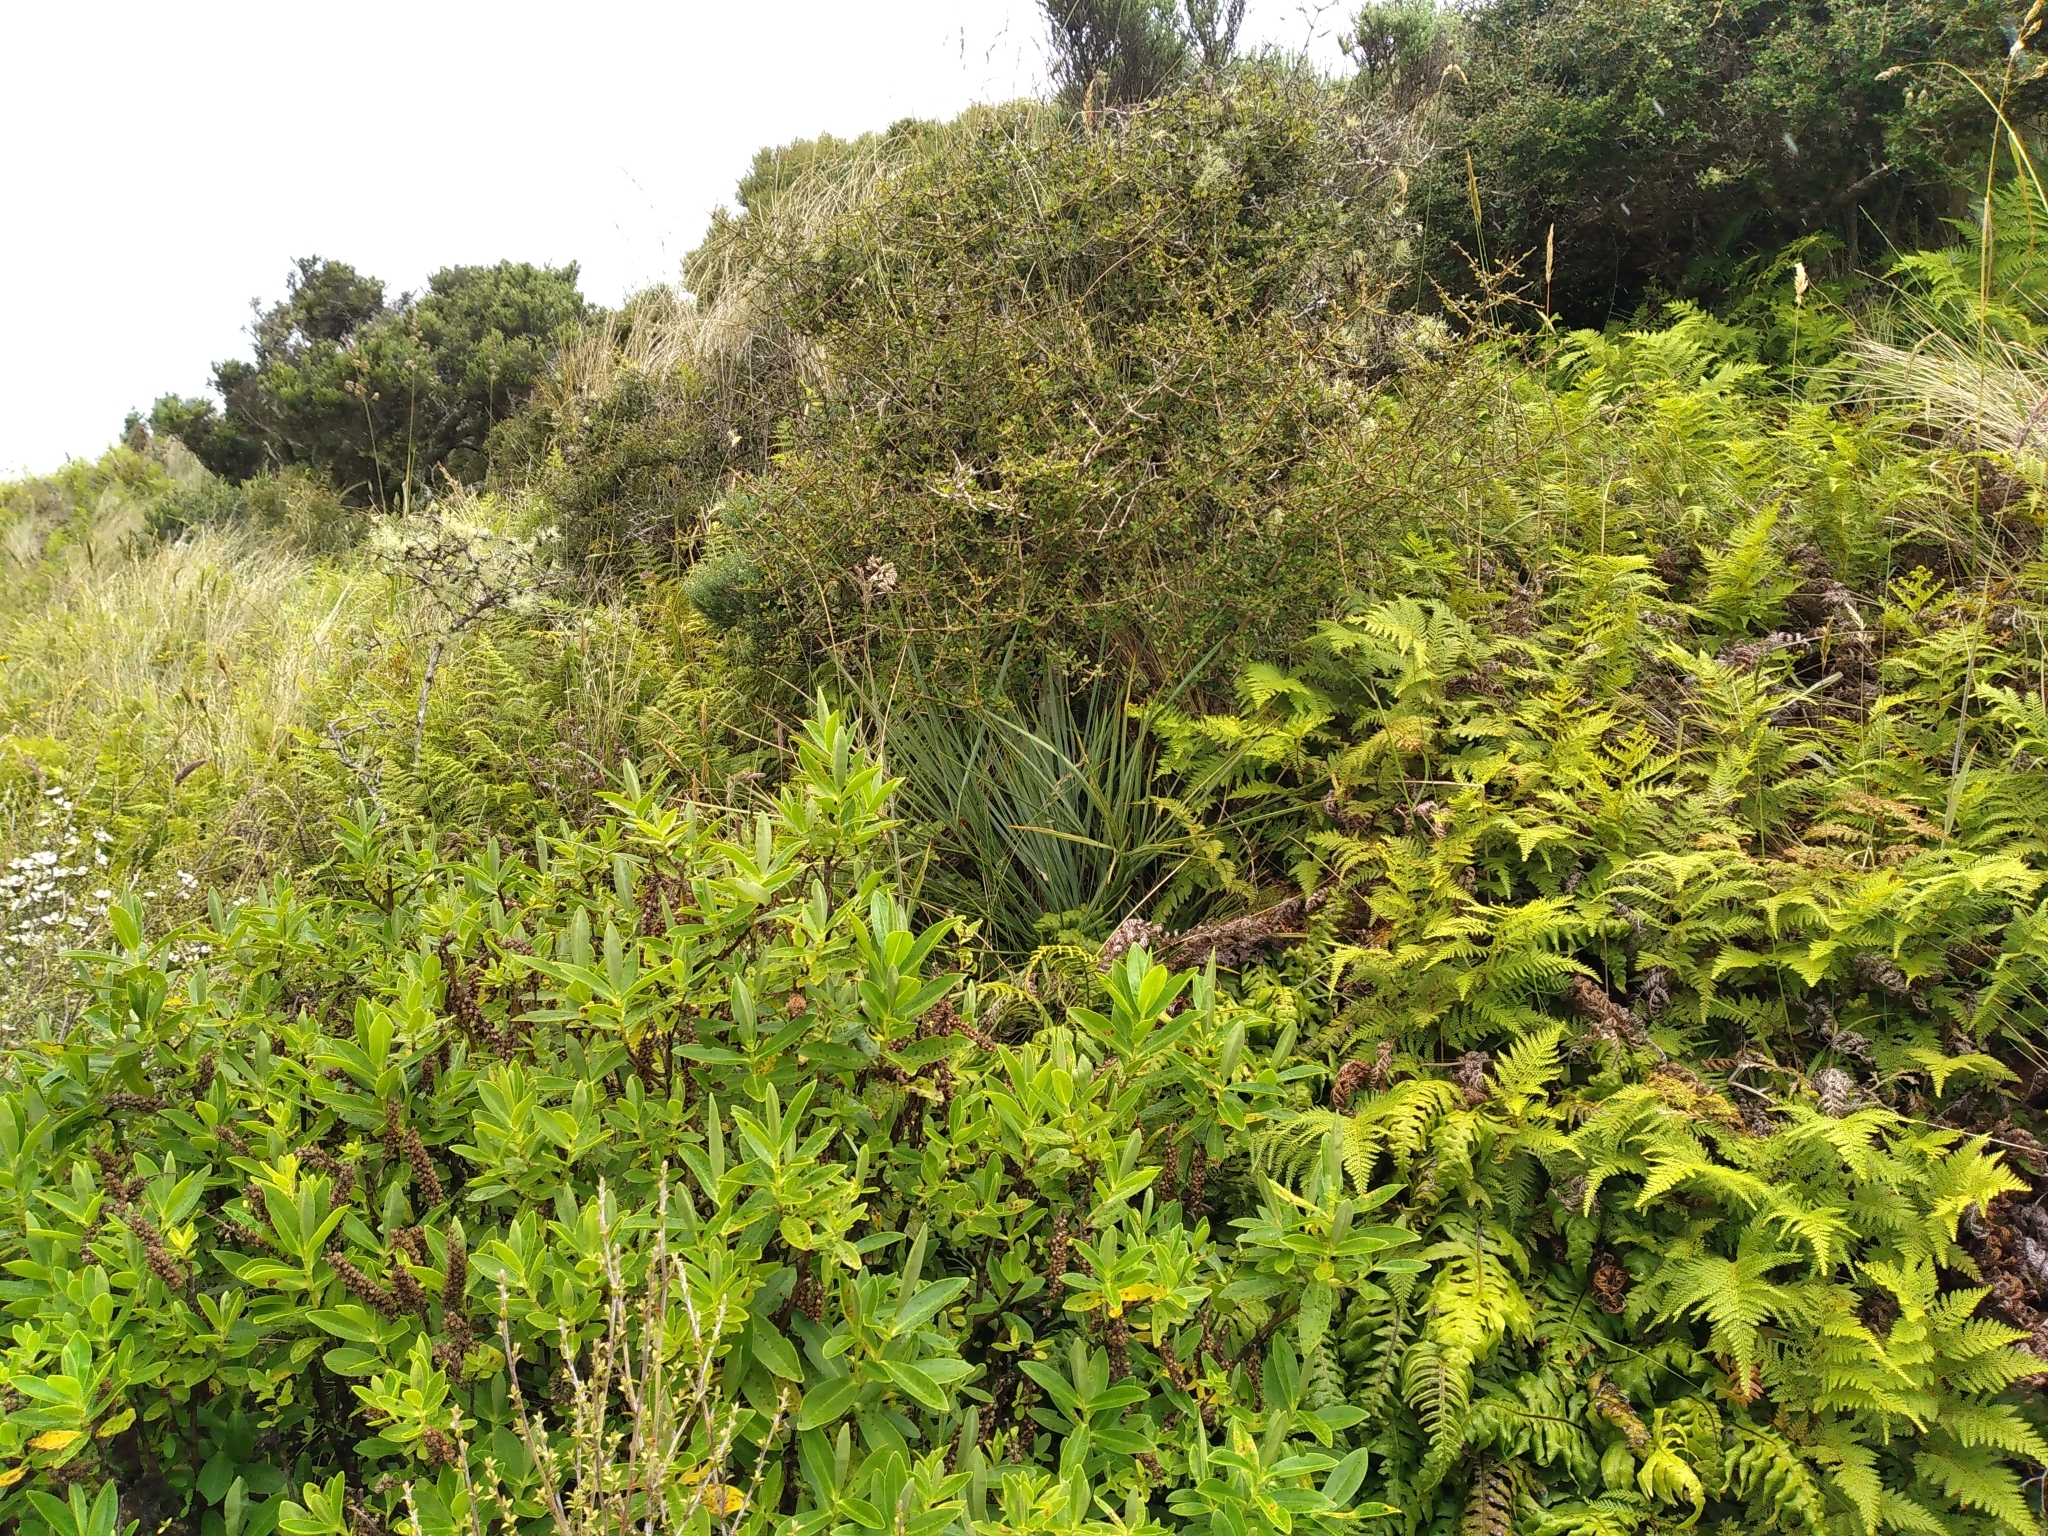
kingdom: Plantae
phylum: Tracheophyta
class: Magnoliopsida
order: Apiales
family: Apiaceae
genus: Aciphylla
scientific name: Aciphylla squarrosa
